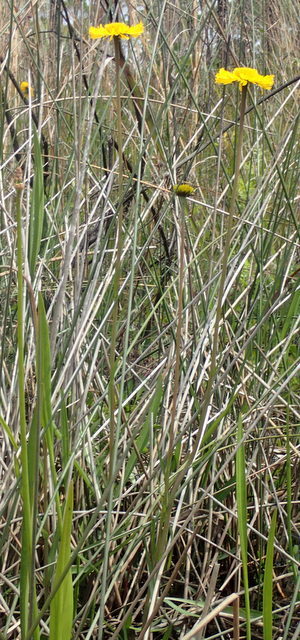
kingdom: Plantae
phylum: Tracheophyta
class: Magnoliopsida
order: Asterales
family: Asteraceae
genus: Helenium
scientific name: Helenium pinnatifidum
